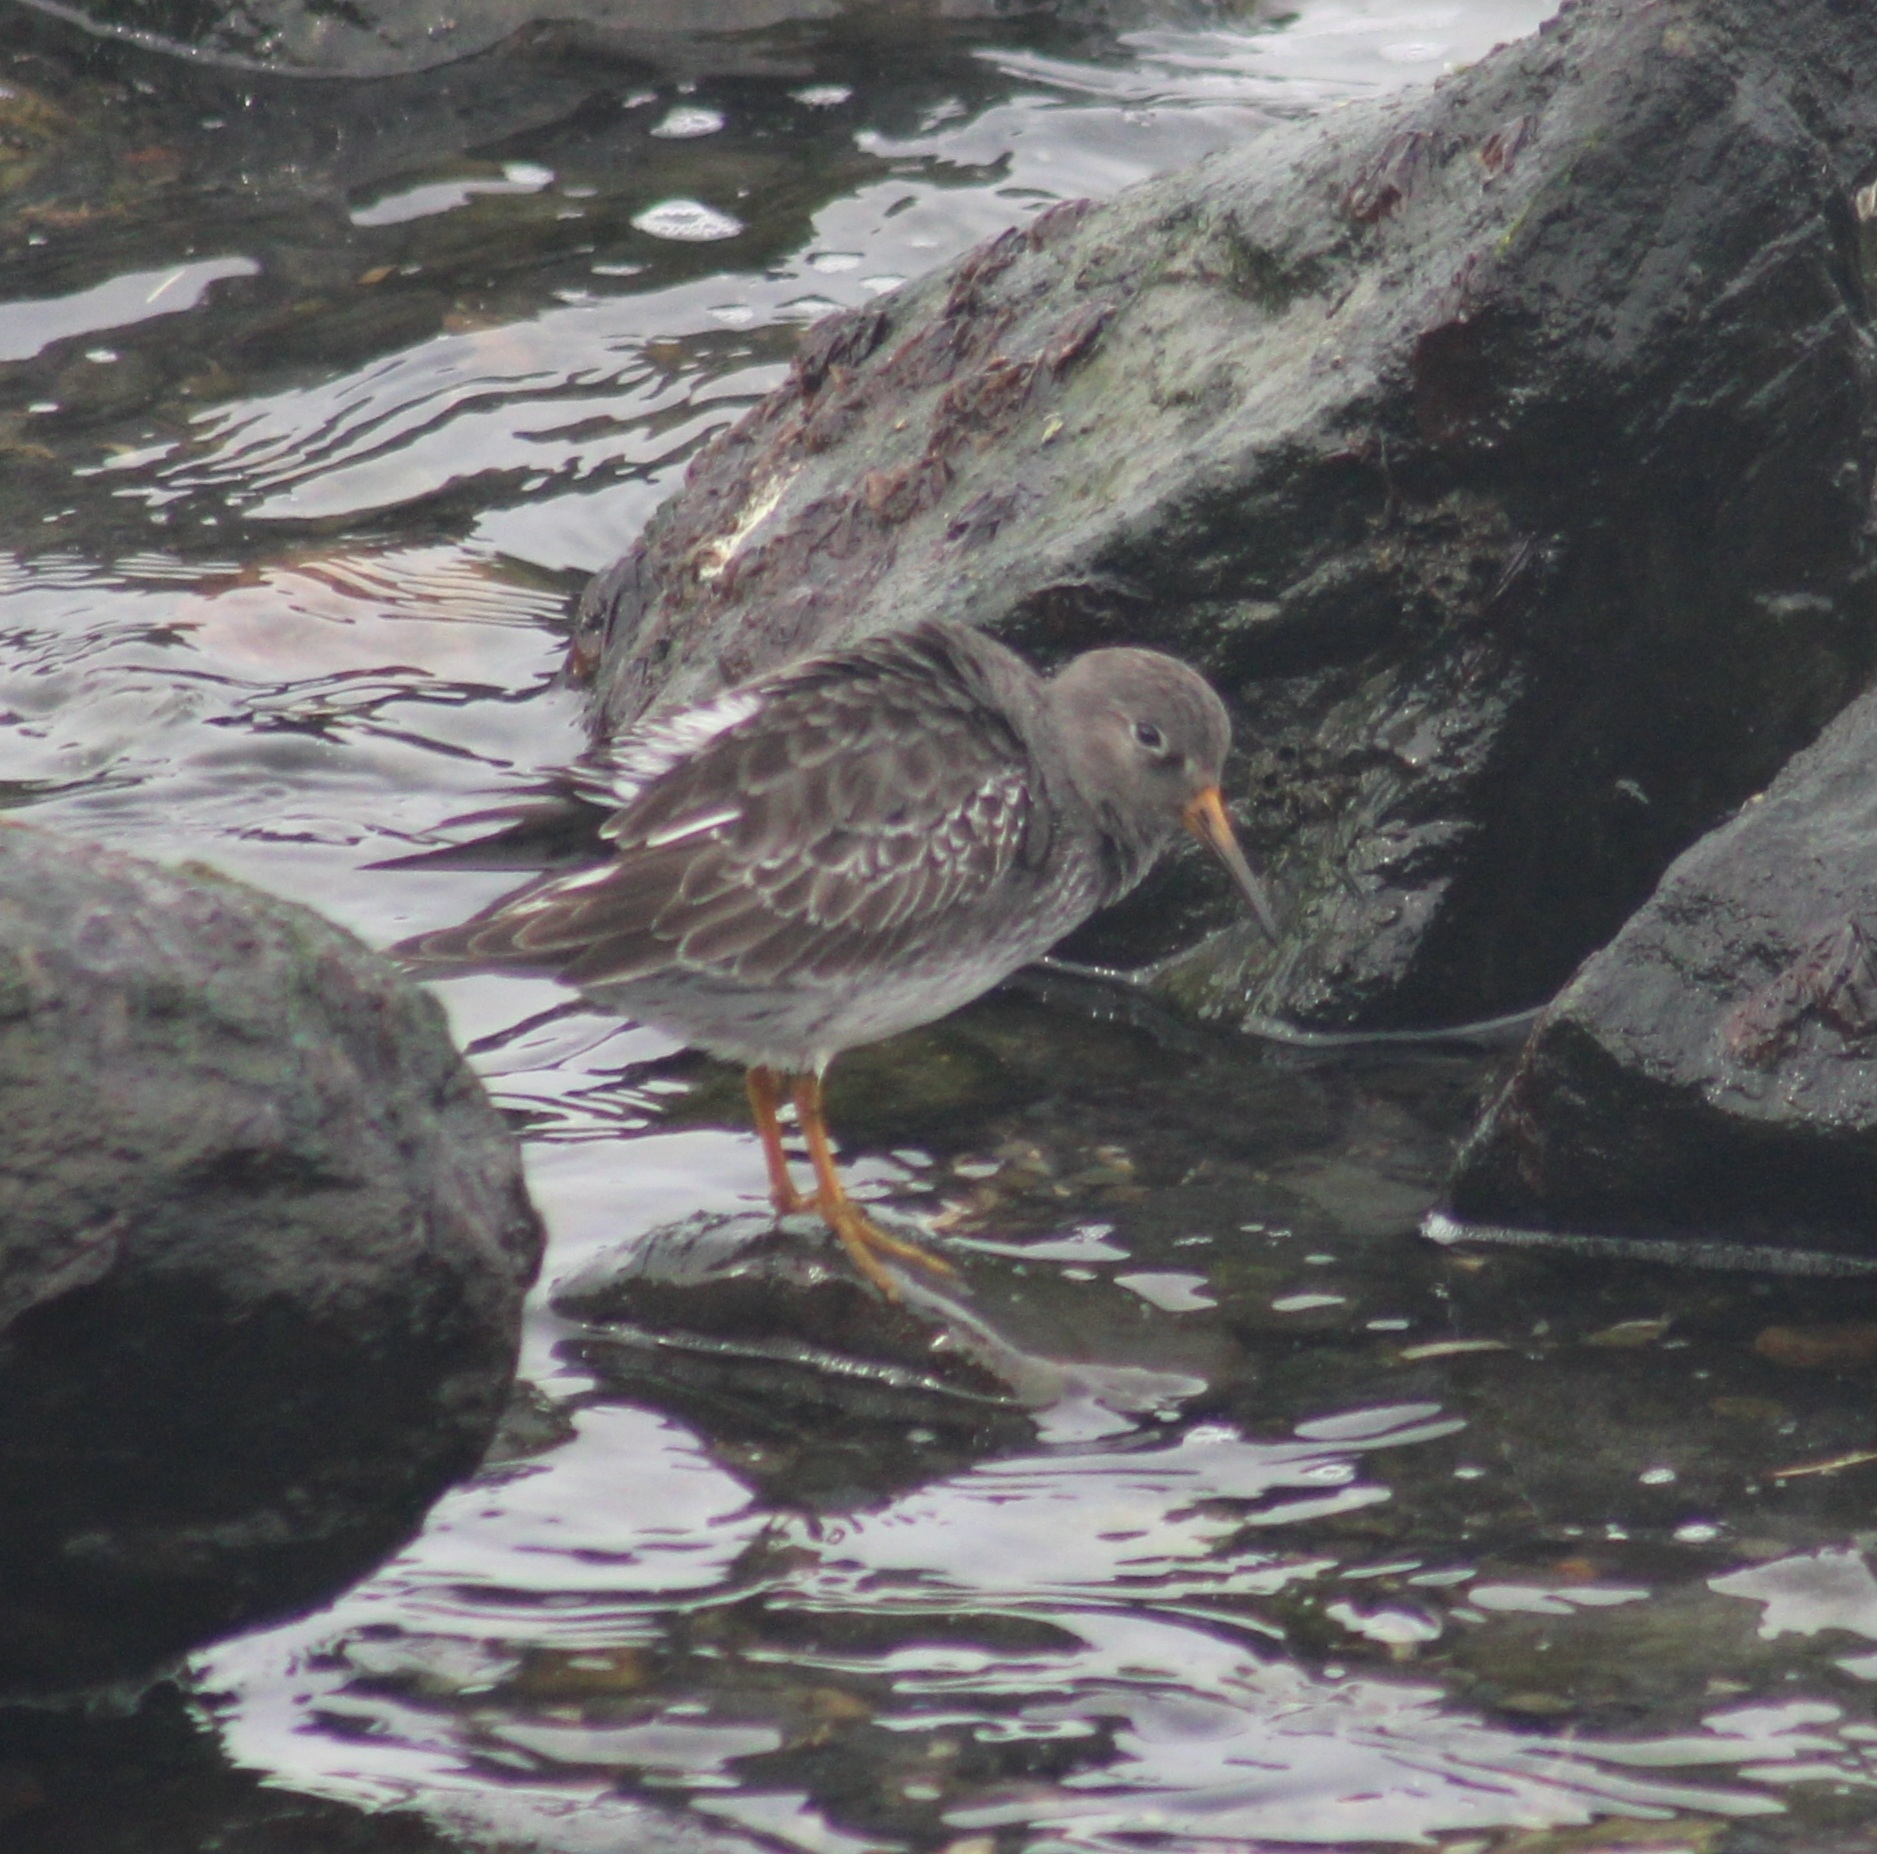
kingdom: Animalia
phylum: Chordata
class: Aves
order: Charadriiformes
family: Scolopacidae
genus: Calidris
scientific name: Calidris maritima
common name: Purple sandpiper
